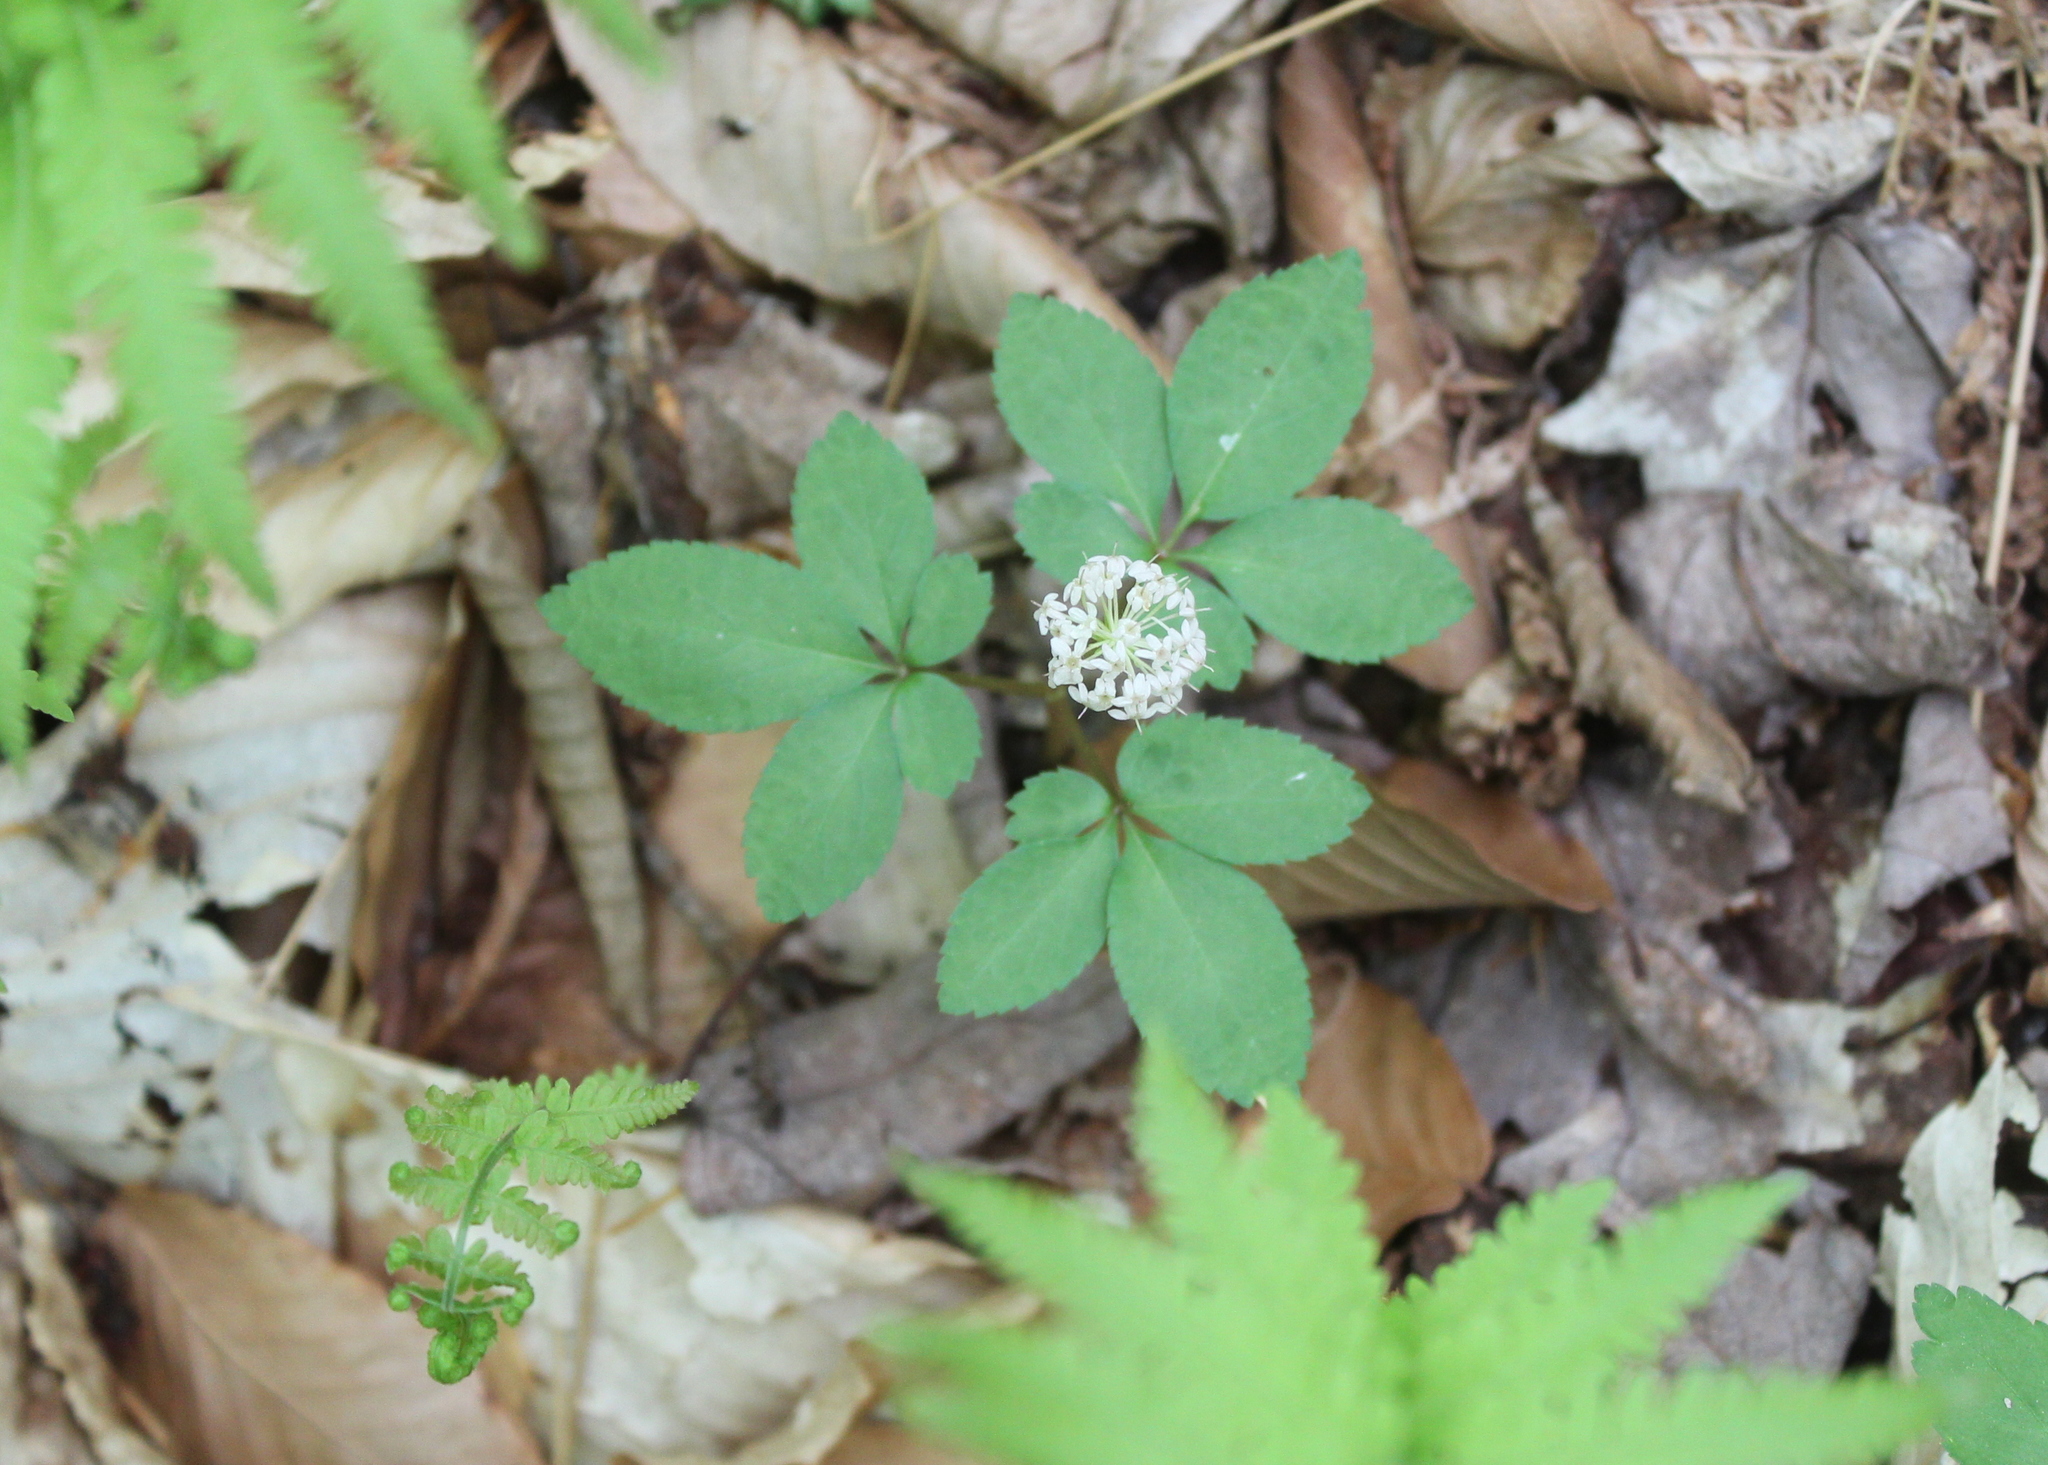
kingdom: Plantae
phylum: Tracheophyta
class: Magnoliopsida
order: Apiales
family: Araliaceae
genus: Panax
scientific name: Panax trifolius
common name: Dwarf ginseng
